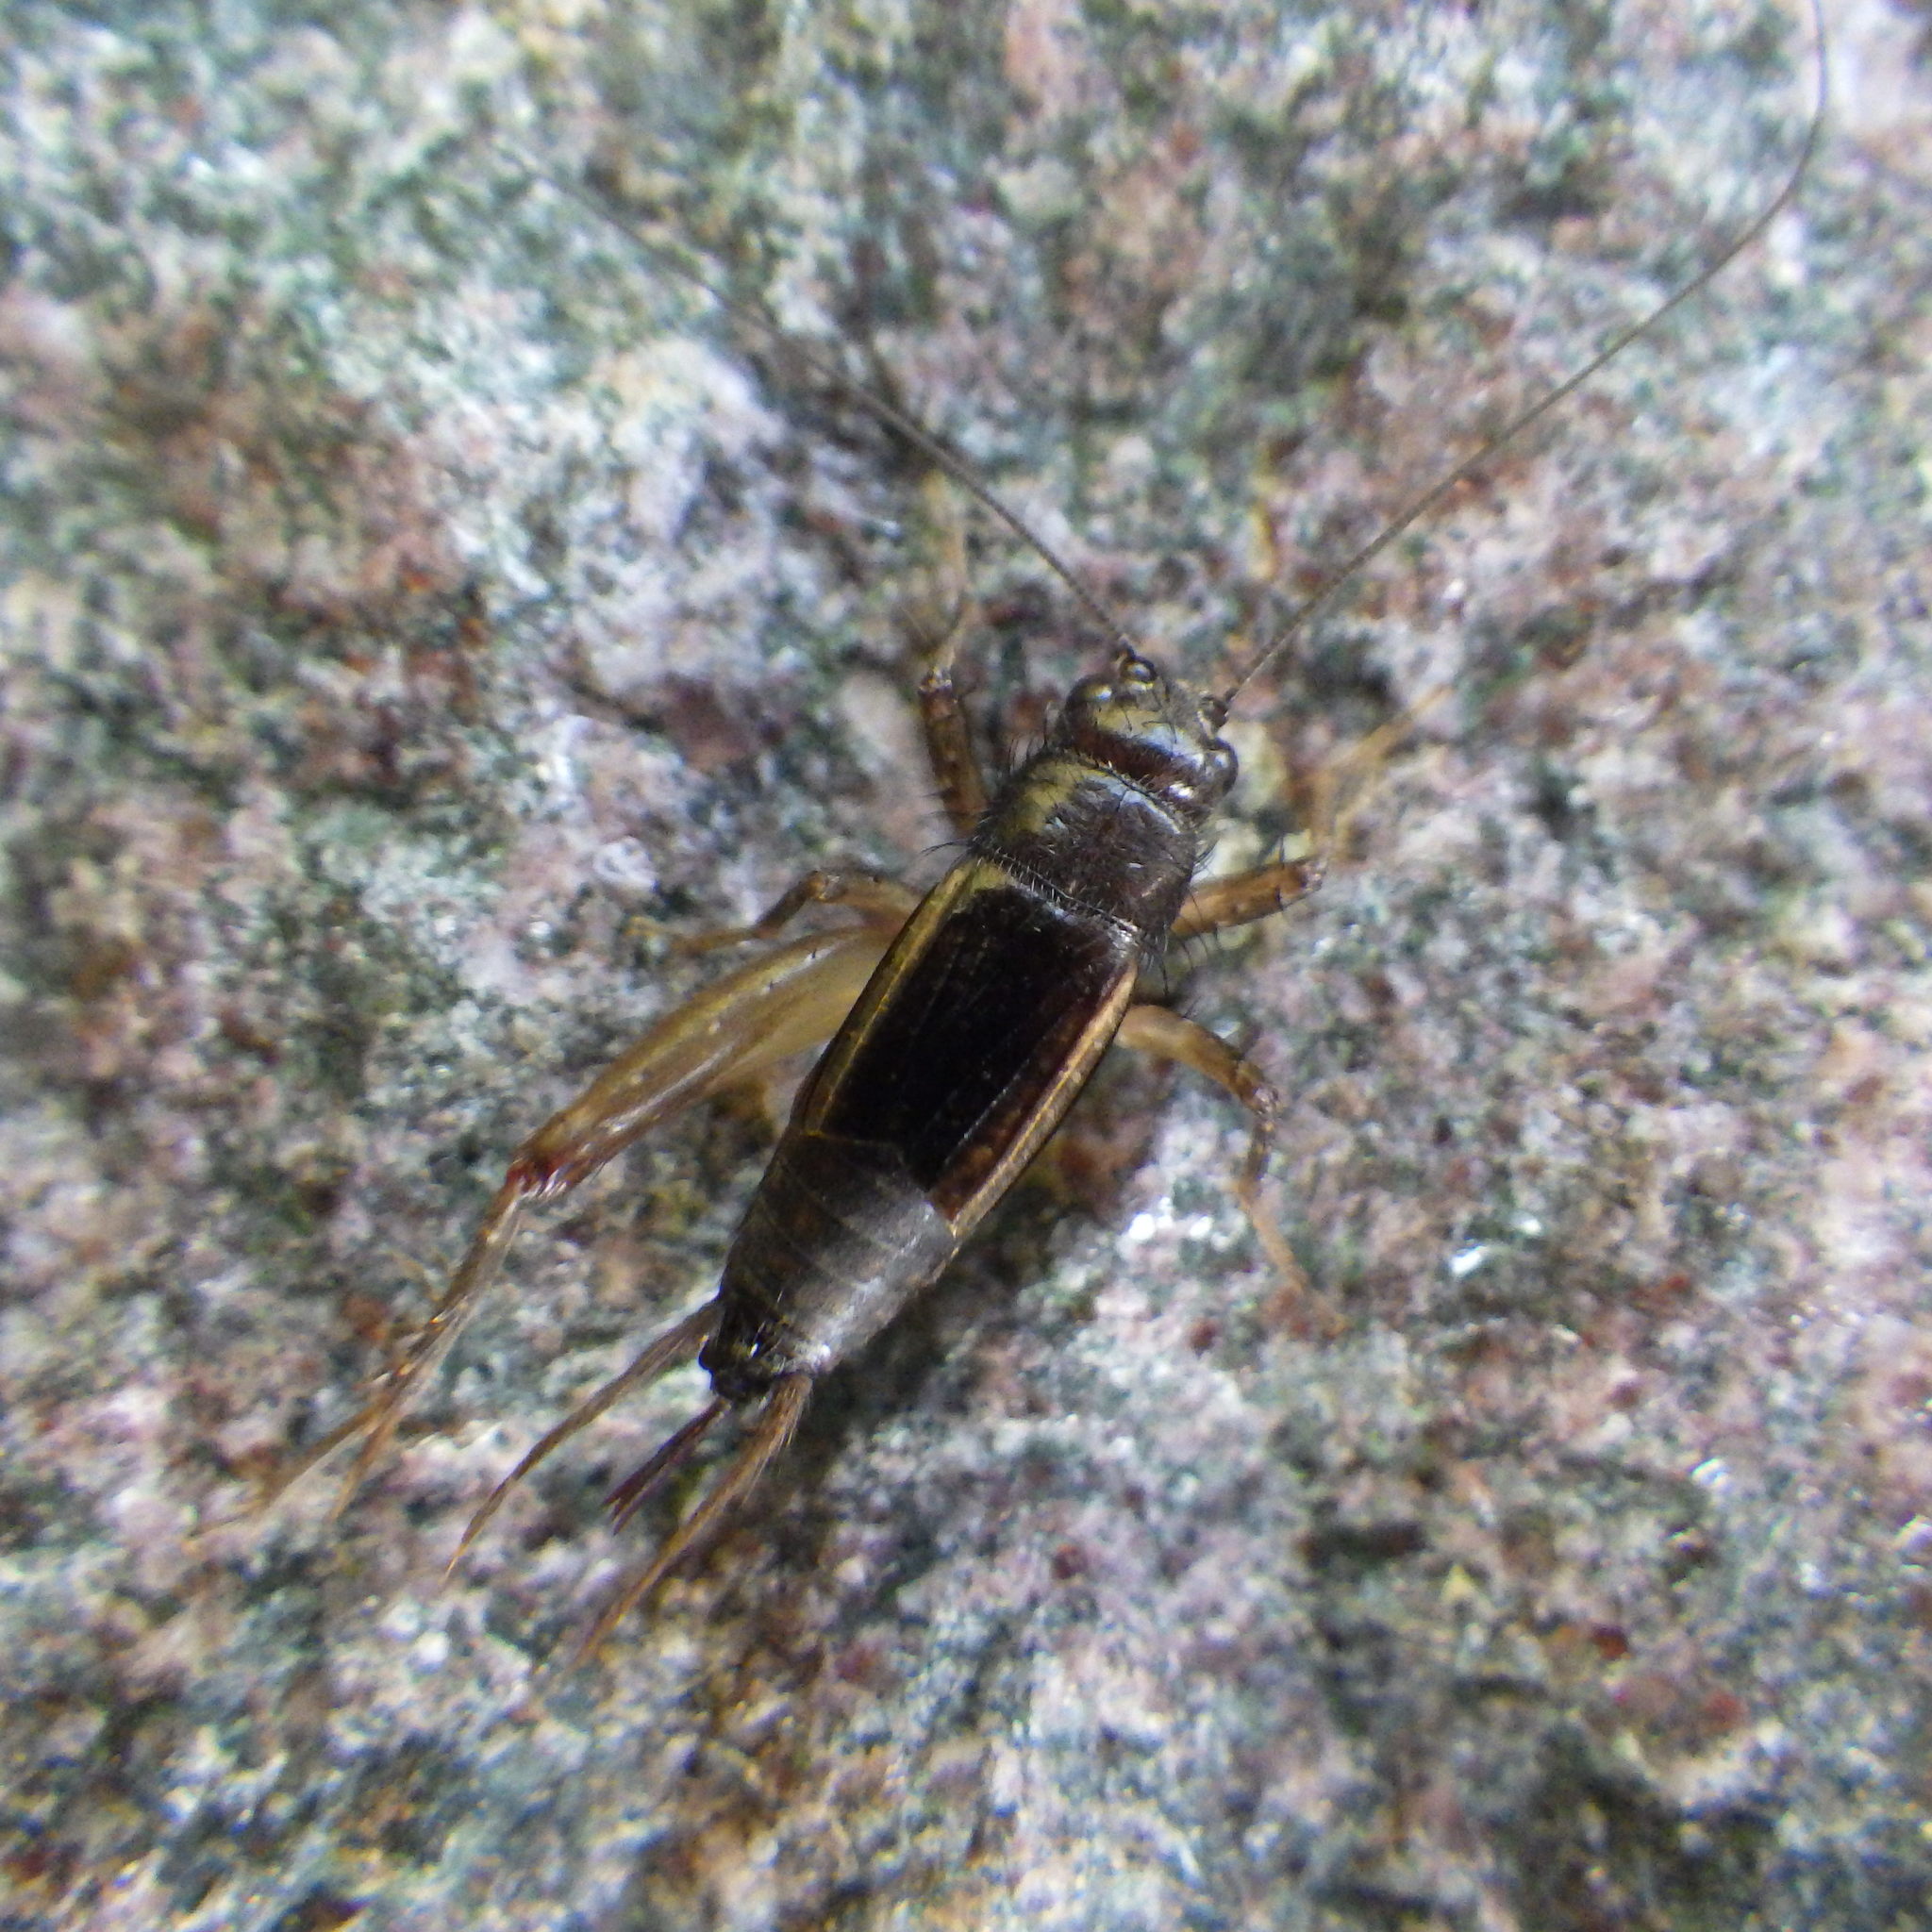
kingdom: Animalia
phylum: Arthropoda
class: Insecta
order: Orthoptera
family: Trigonidiidae
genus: Eunemobius
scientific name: Eunemobius carolinus
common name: Carolina ground cricket
